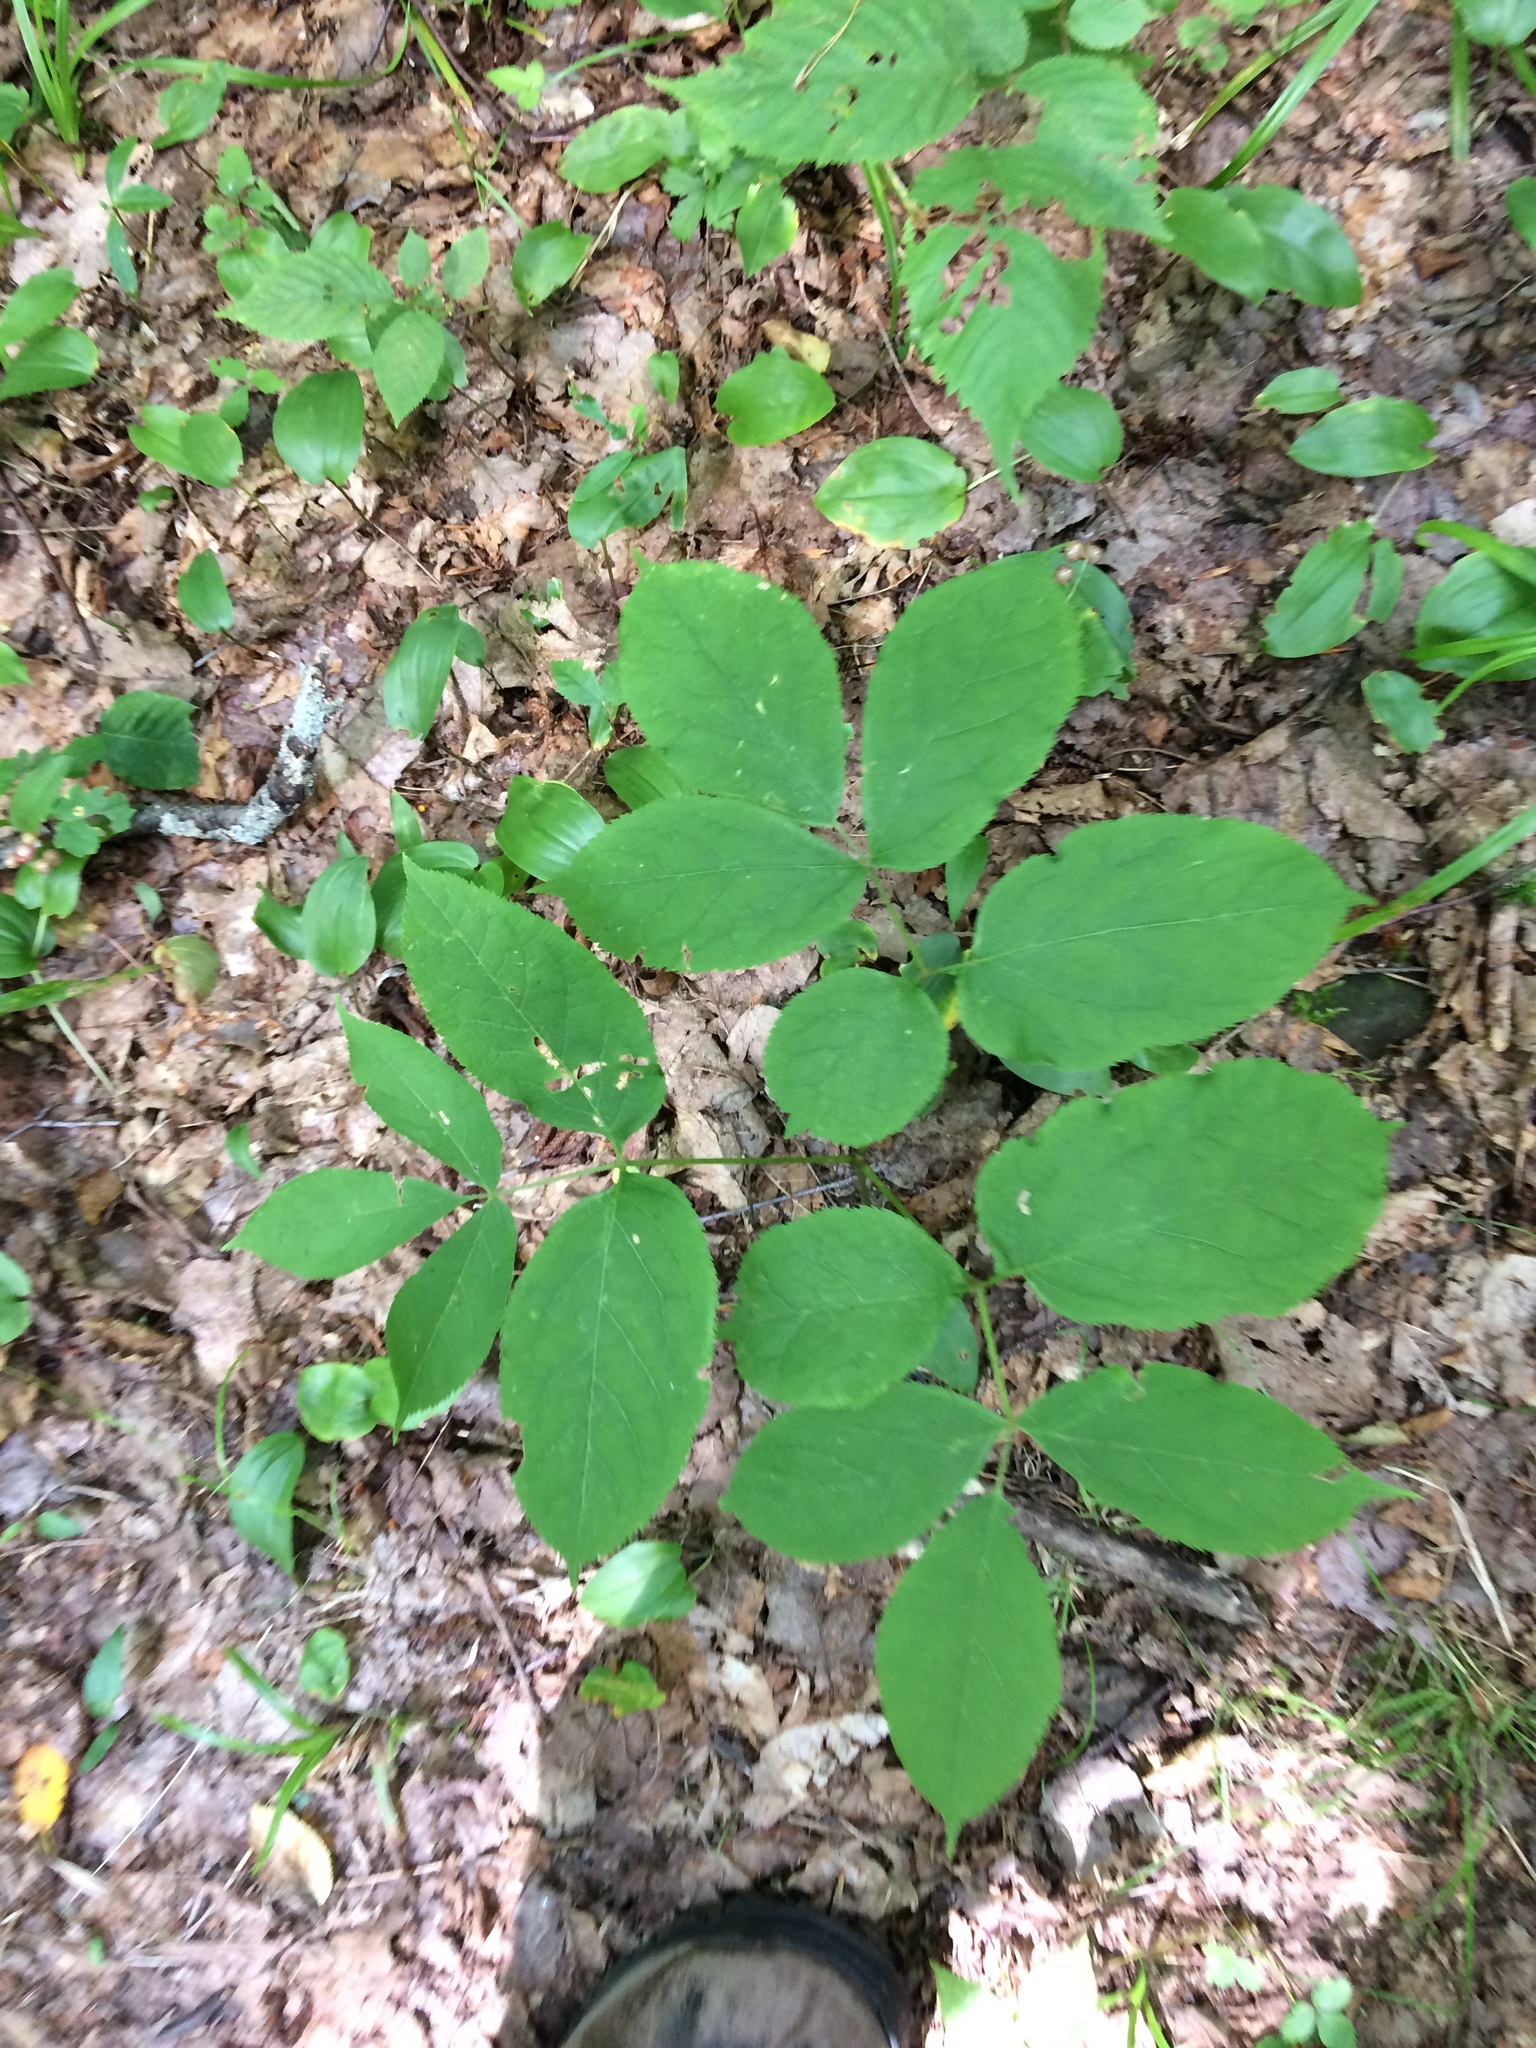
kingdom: Plantae
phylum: Tracheophyta
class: Magnoliopsida
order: Apiales
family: Araliaceae
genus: Aralia
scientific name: Aralia nudicaulis
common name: Wild sarsaparilla
